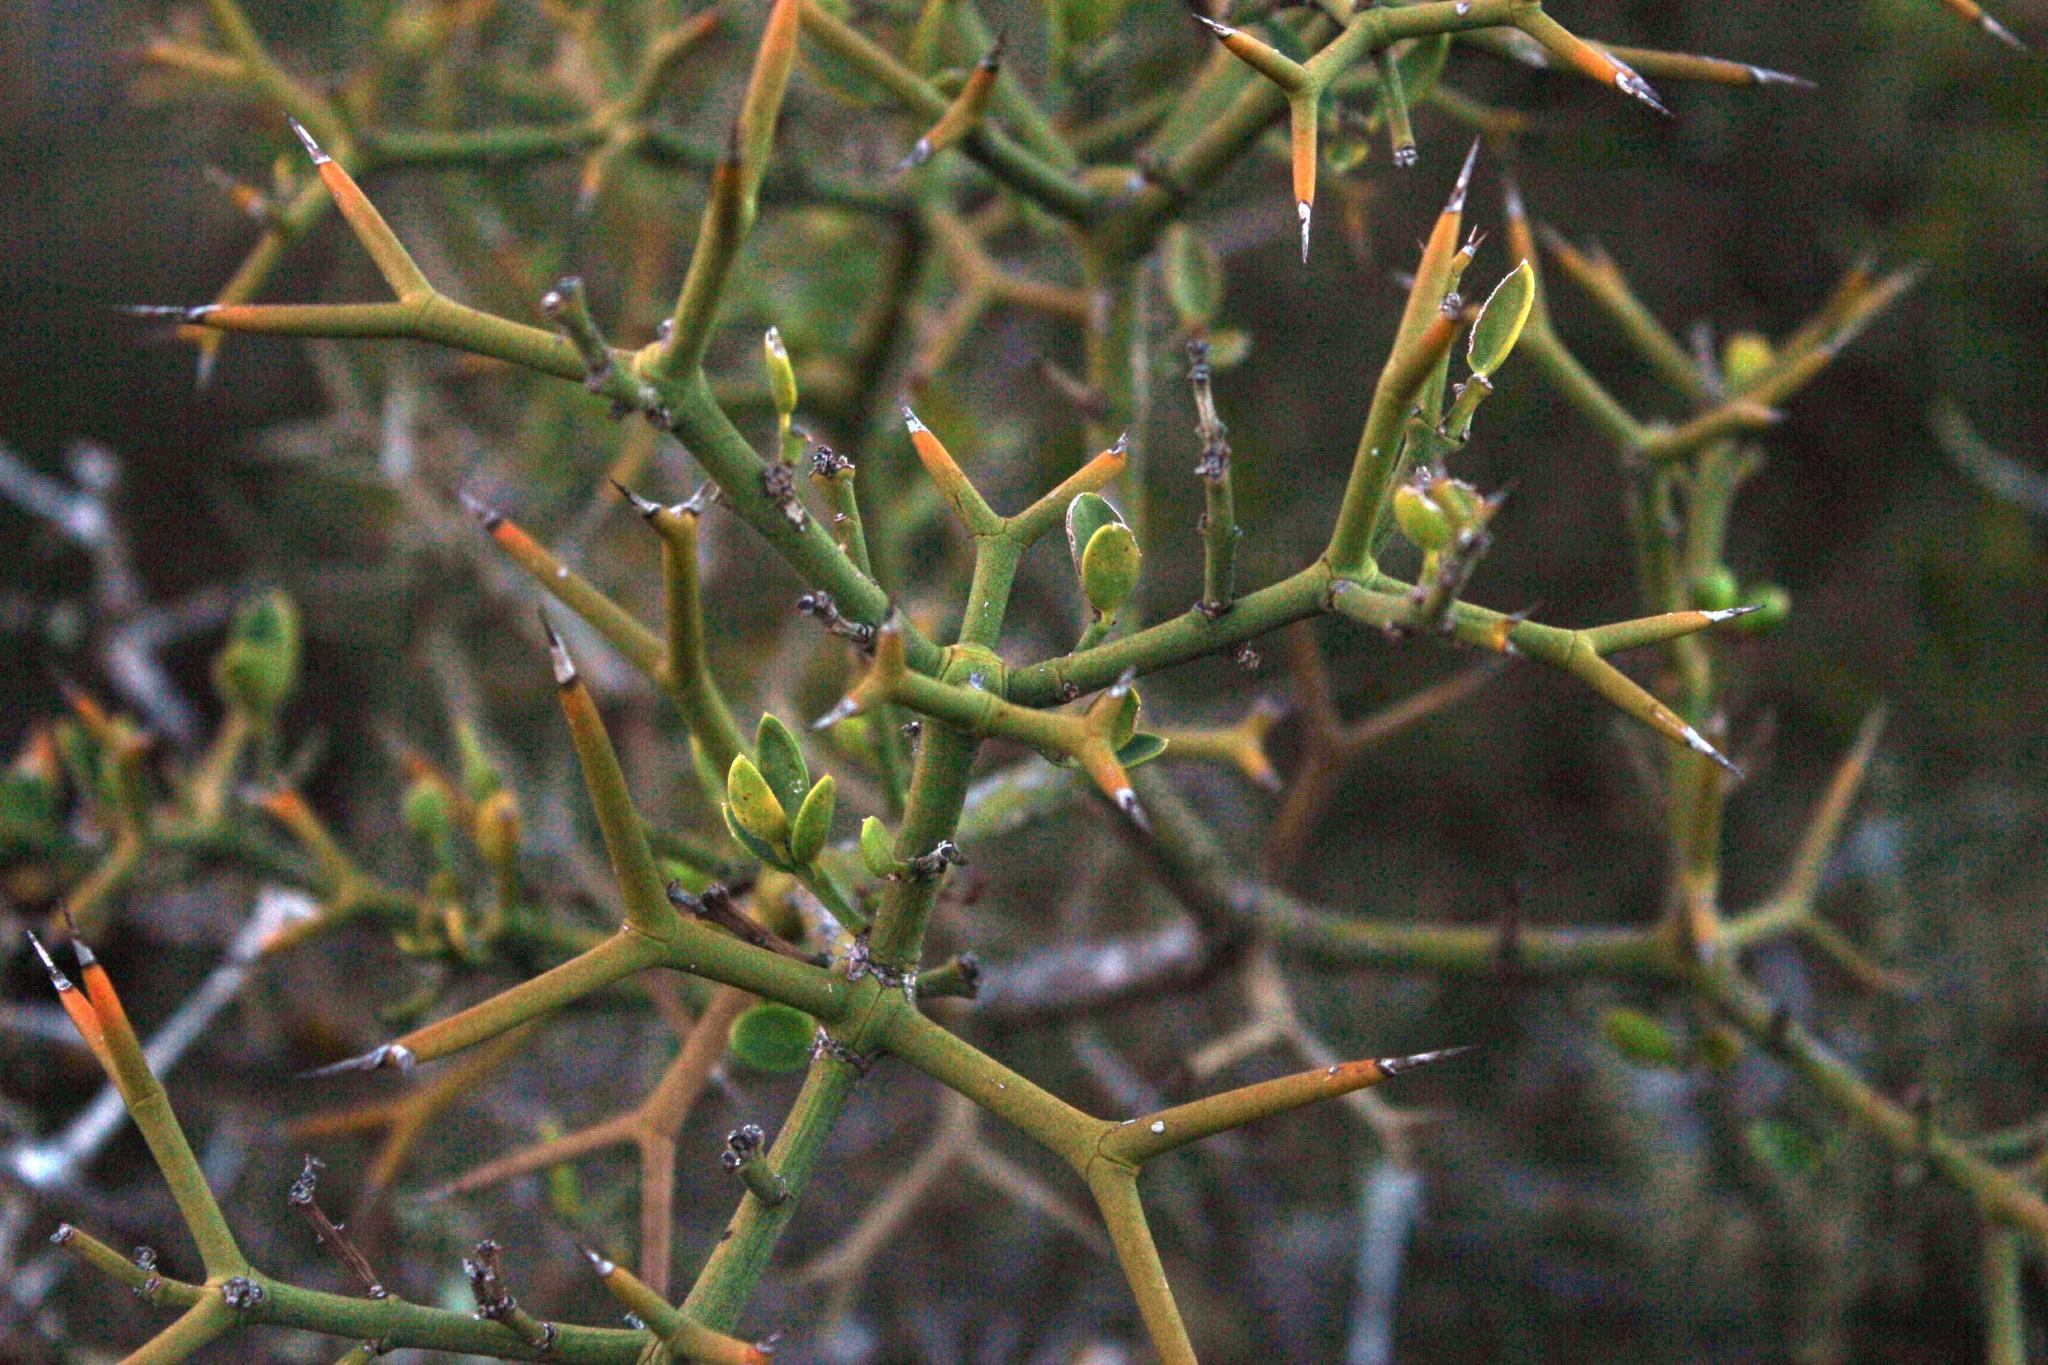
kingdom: Plantae
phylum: Tracheophyta
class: Magnoliopsida
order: Gentianales
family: Apocynaceae
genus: Carissa
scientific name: Carissa haematocarpa
